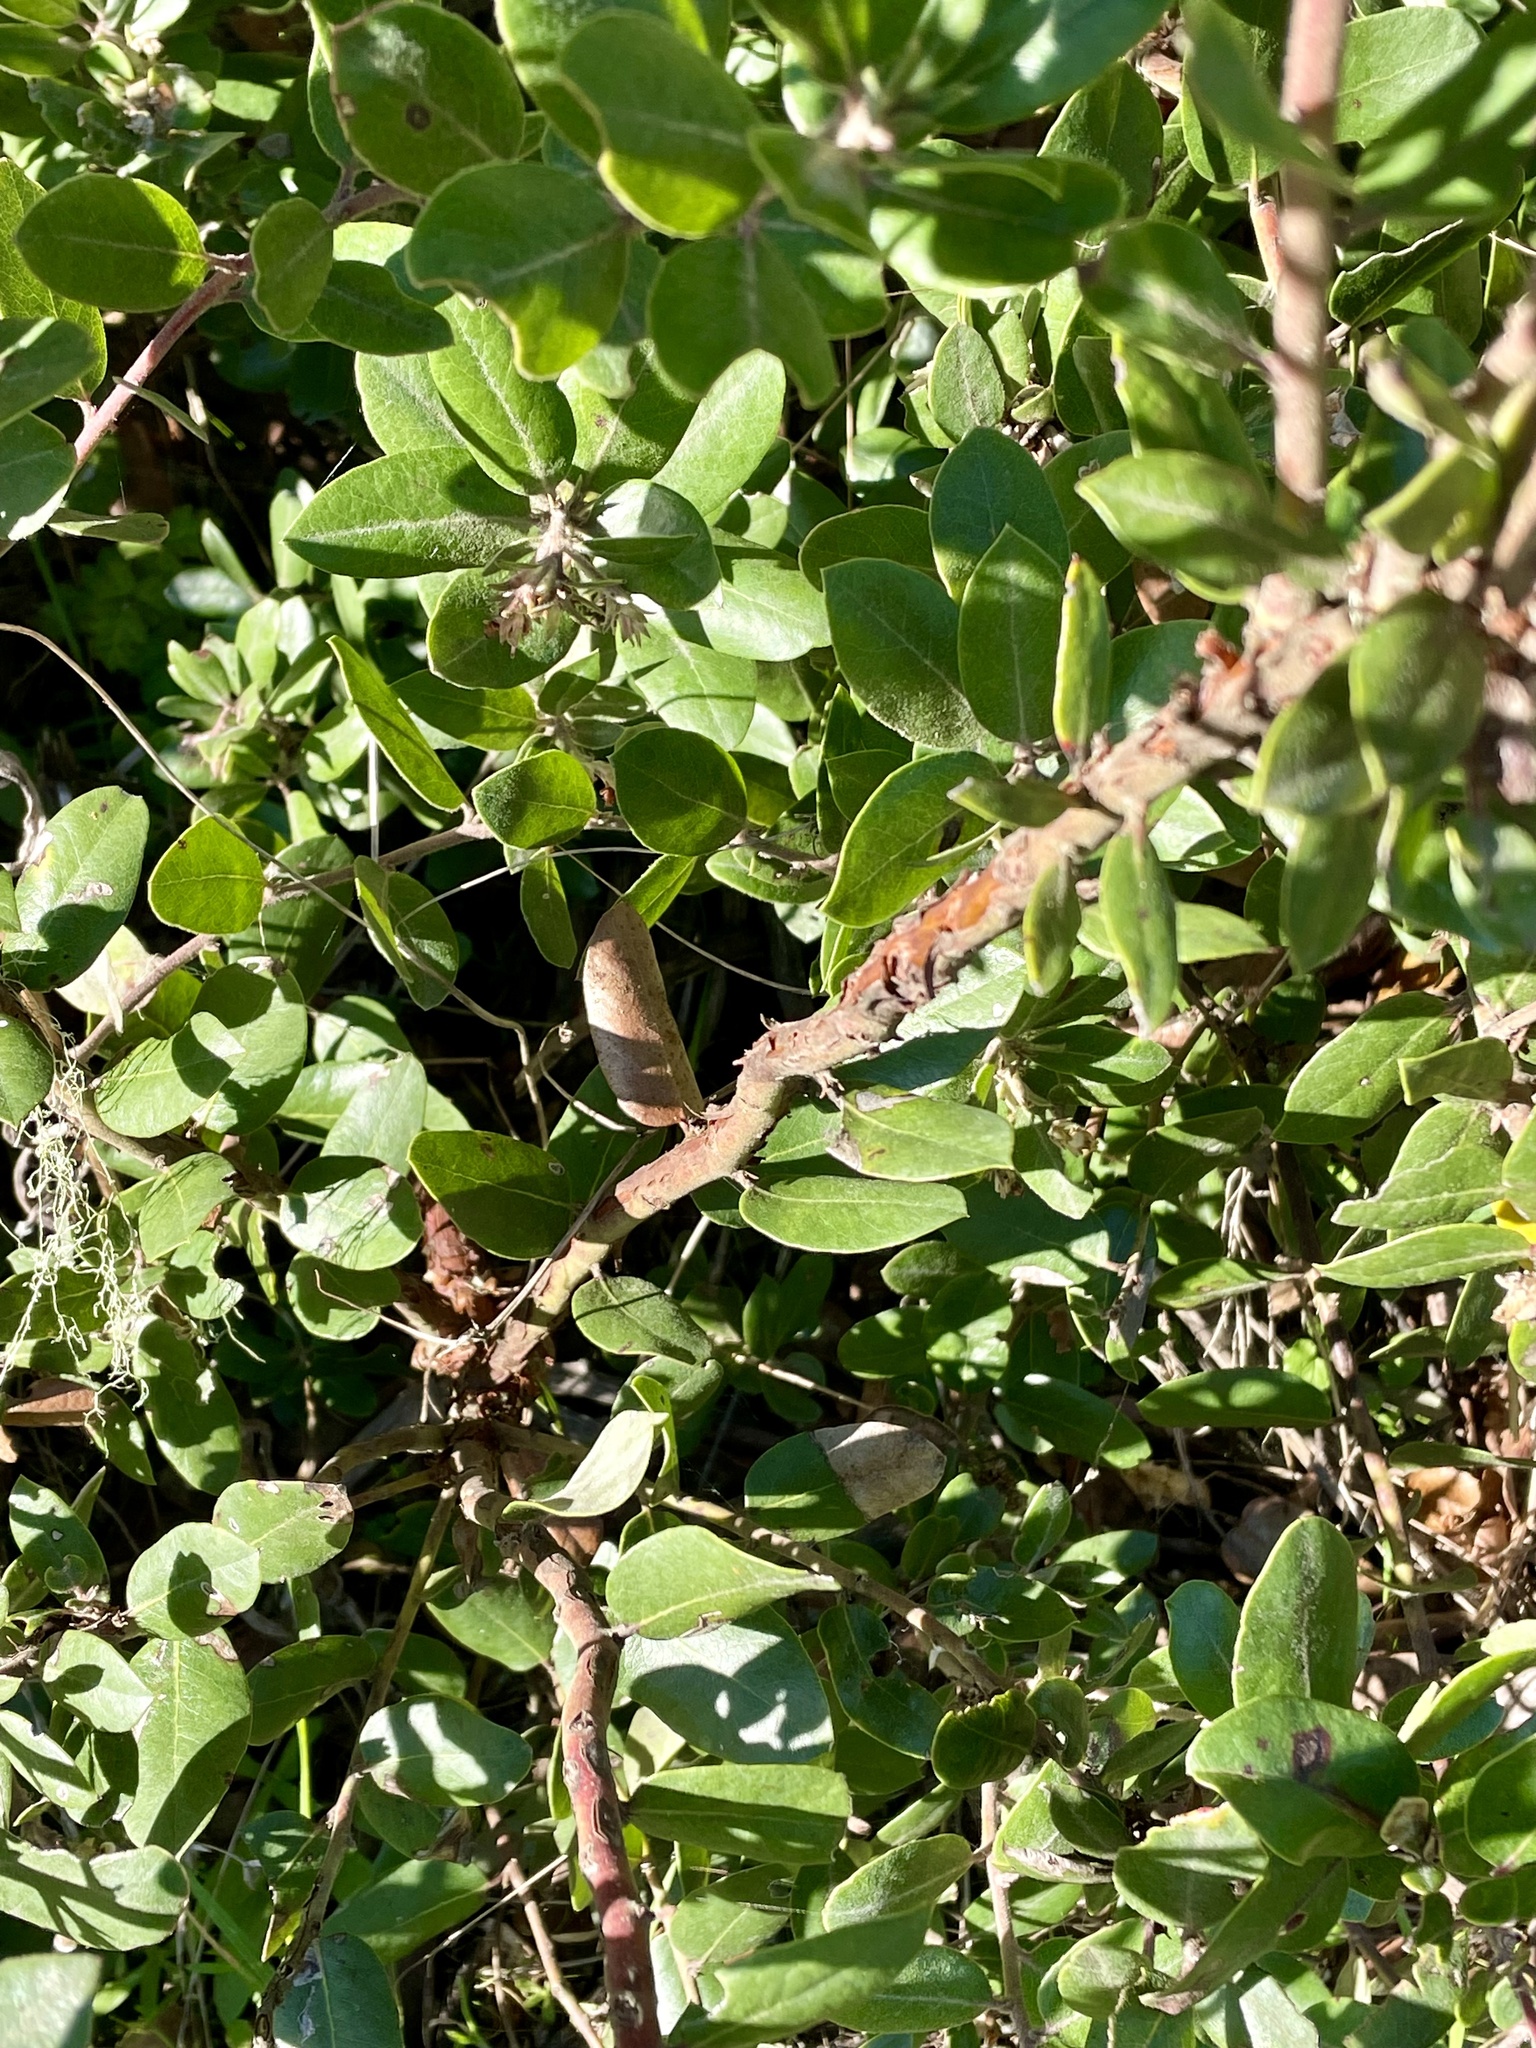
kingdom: Plantae
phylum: Tracheophyta
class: Magnoliopsida
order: Ericales
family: Ericaceae
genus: Arctostaphylos
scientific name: Arctostaphylos tomentosa
